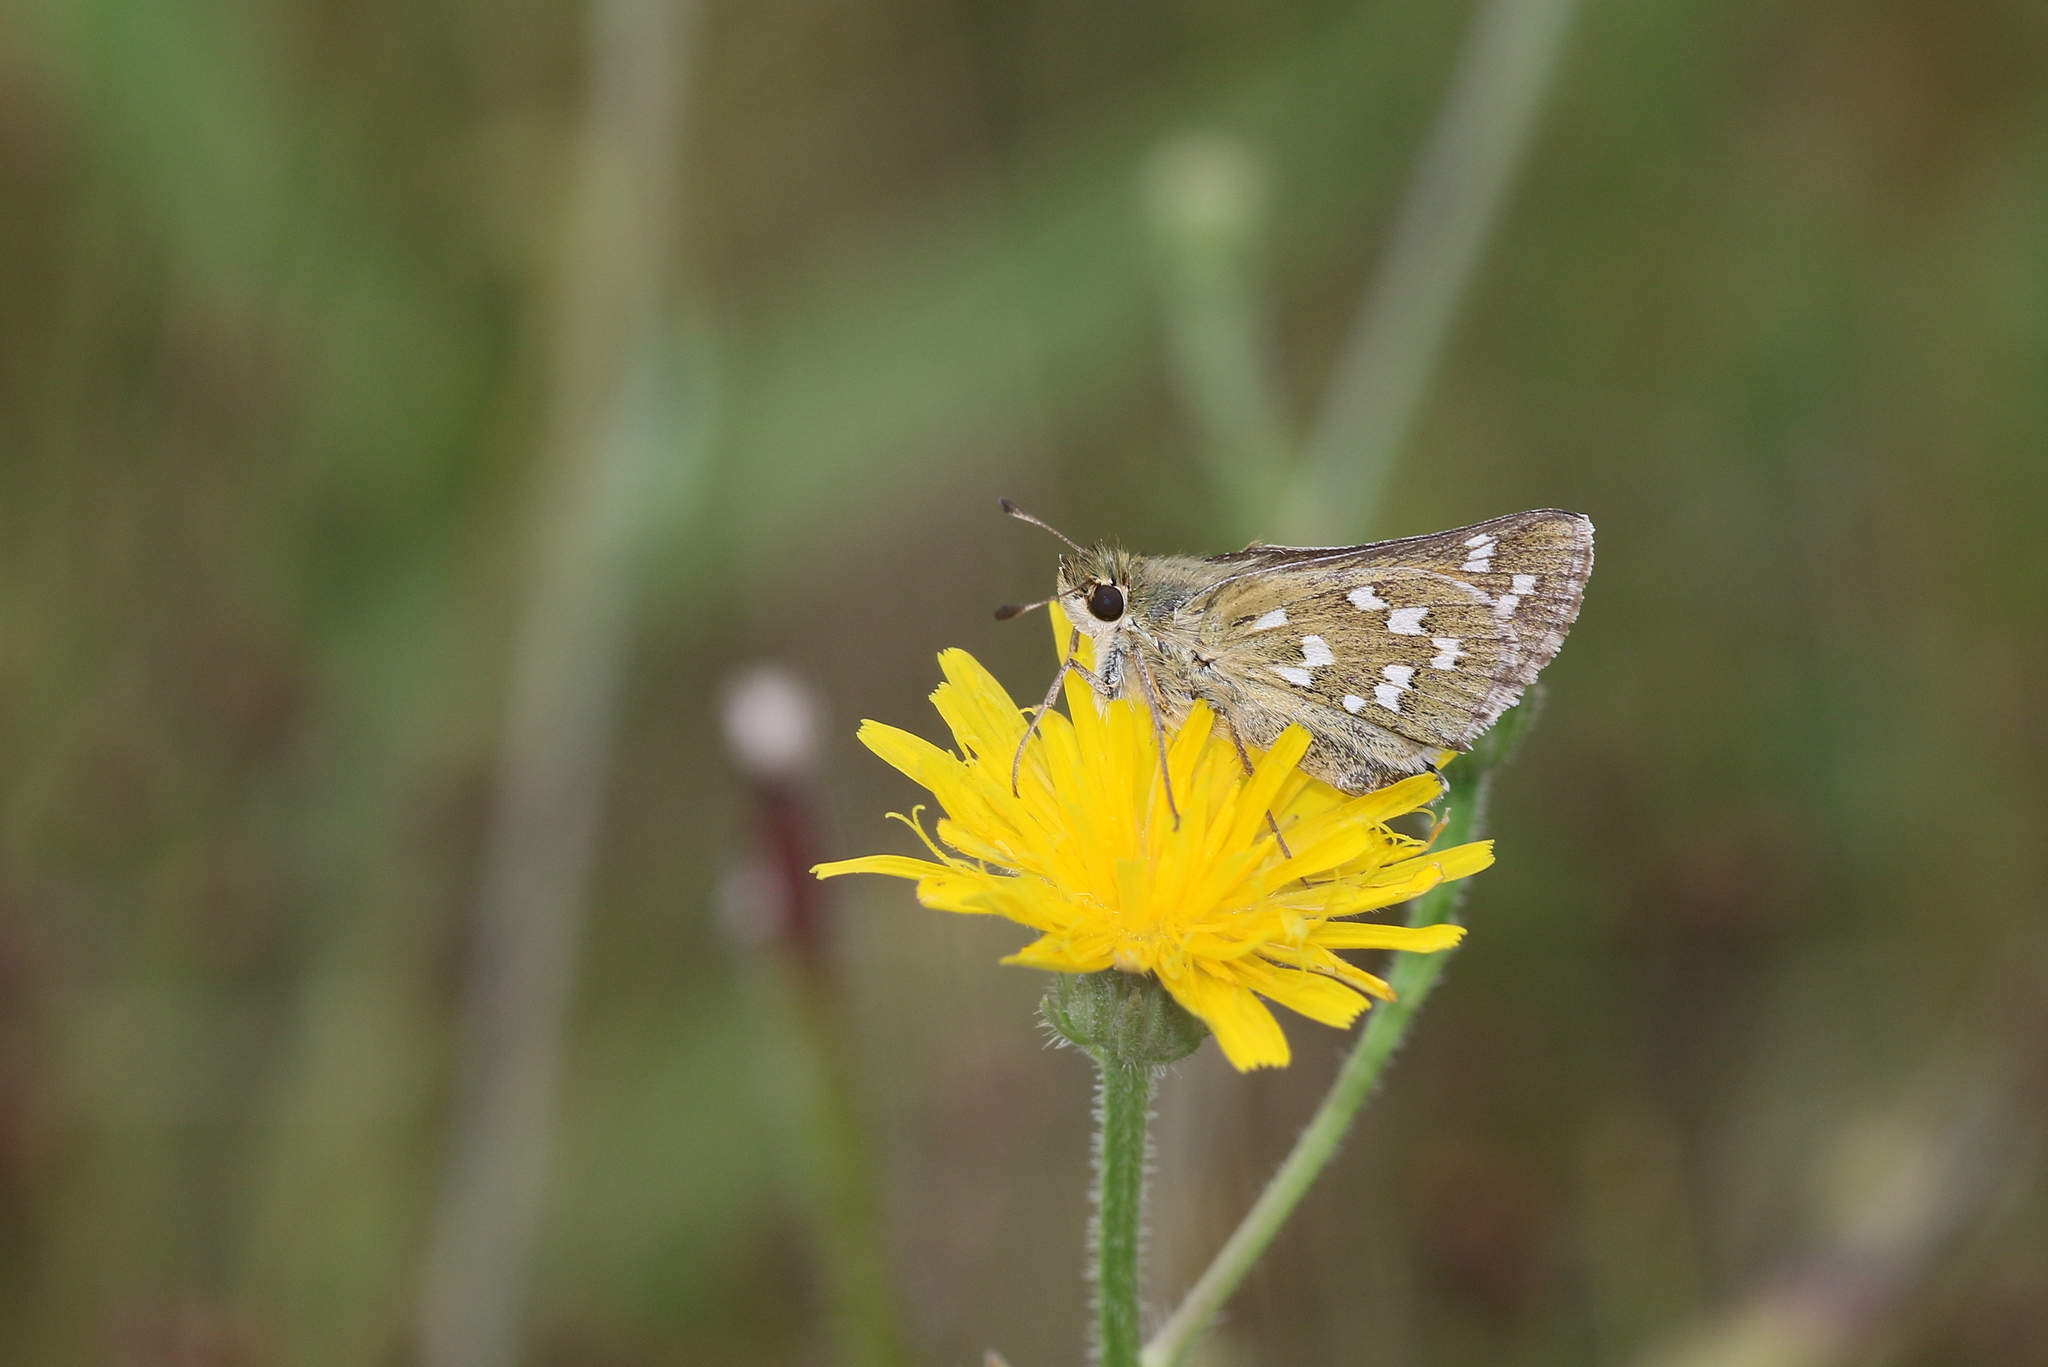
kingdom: Animalia
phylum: Arthropoda
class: Insecta
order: Lepidoptera
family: Hesperiidae
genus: Hesperia
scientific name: Hesperia comma
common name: Common branded skipper
